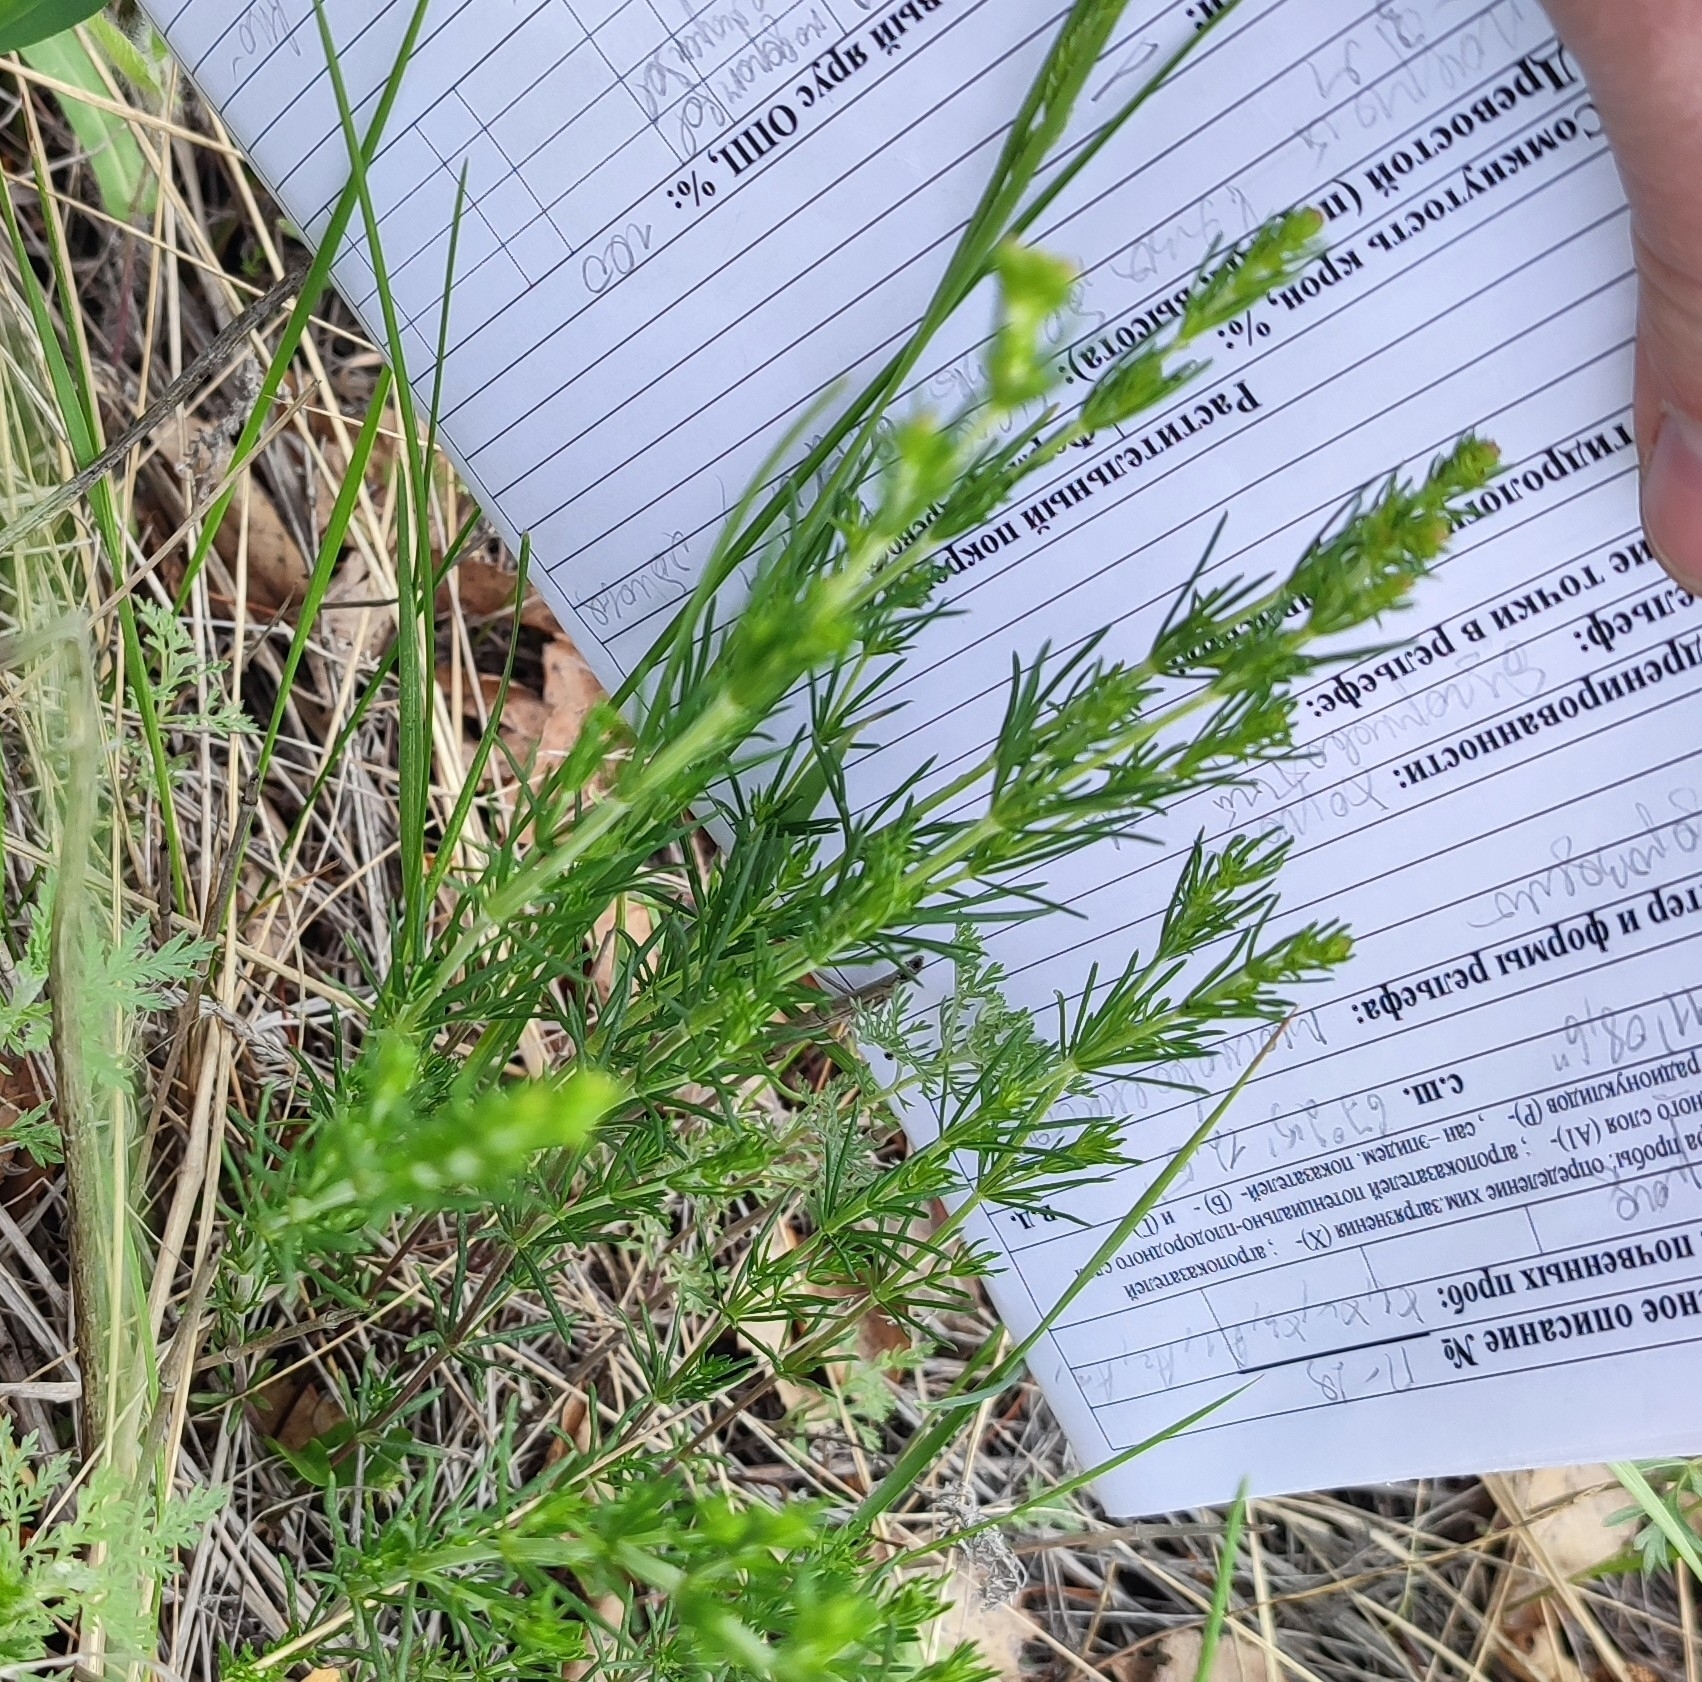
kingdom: Plantae
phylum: Tracheophyta
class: Magnoliopsida
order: Gentianales
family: Rubiaceae
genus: Galium
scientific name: Galium verum
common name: Lady's bedstraw
